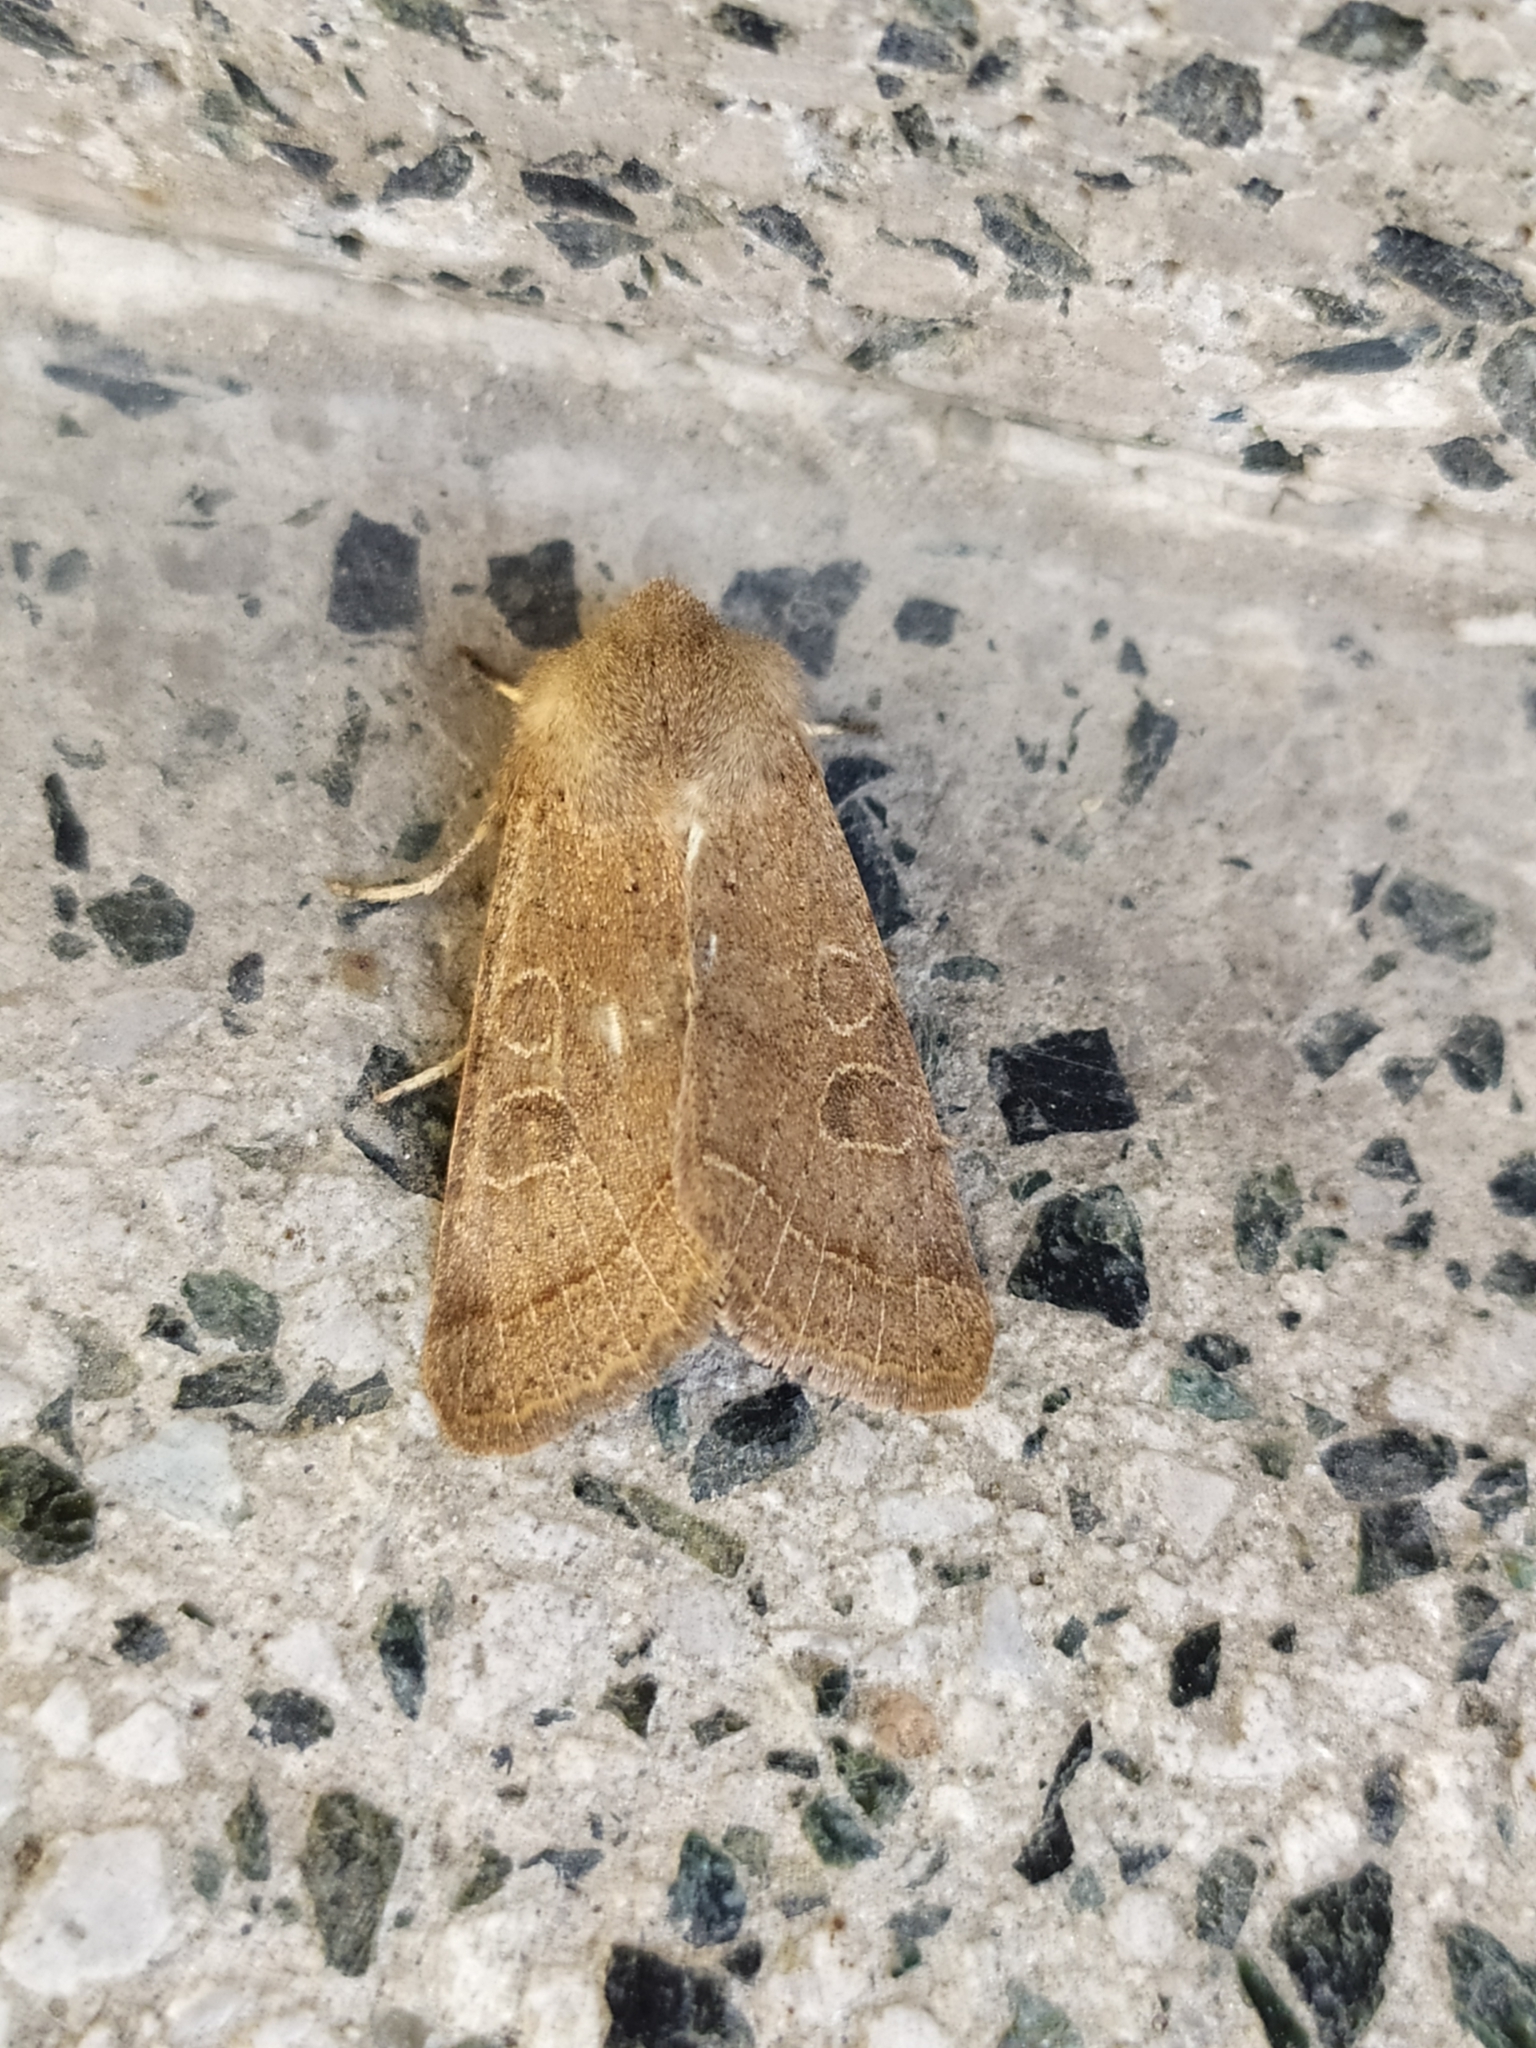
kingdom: Animalia
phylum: Arthropoda
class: Insecta
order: Lepidoptera
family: Noctuidae
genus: Orthosia
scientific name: Orthosia cerasi
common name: Common quaker
